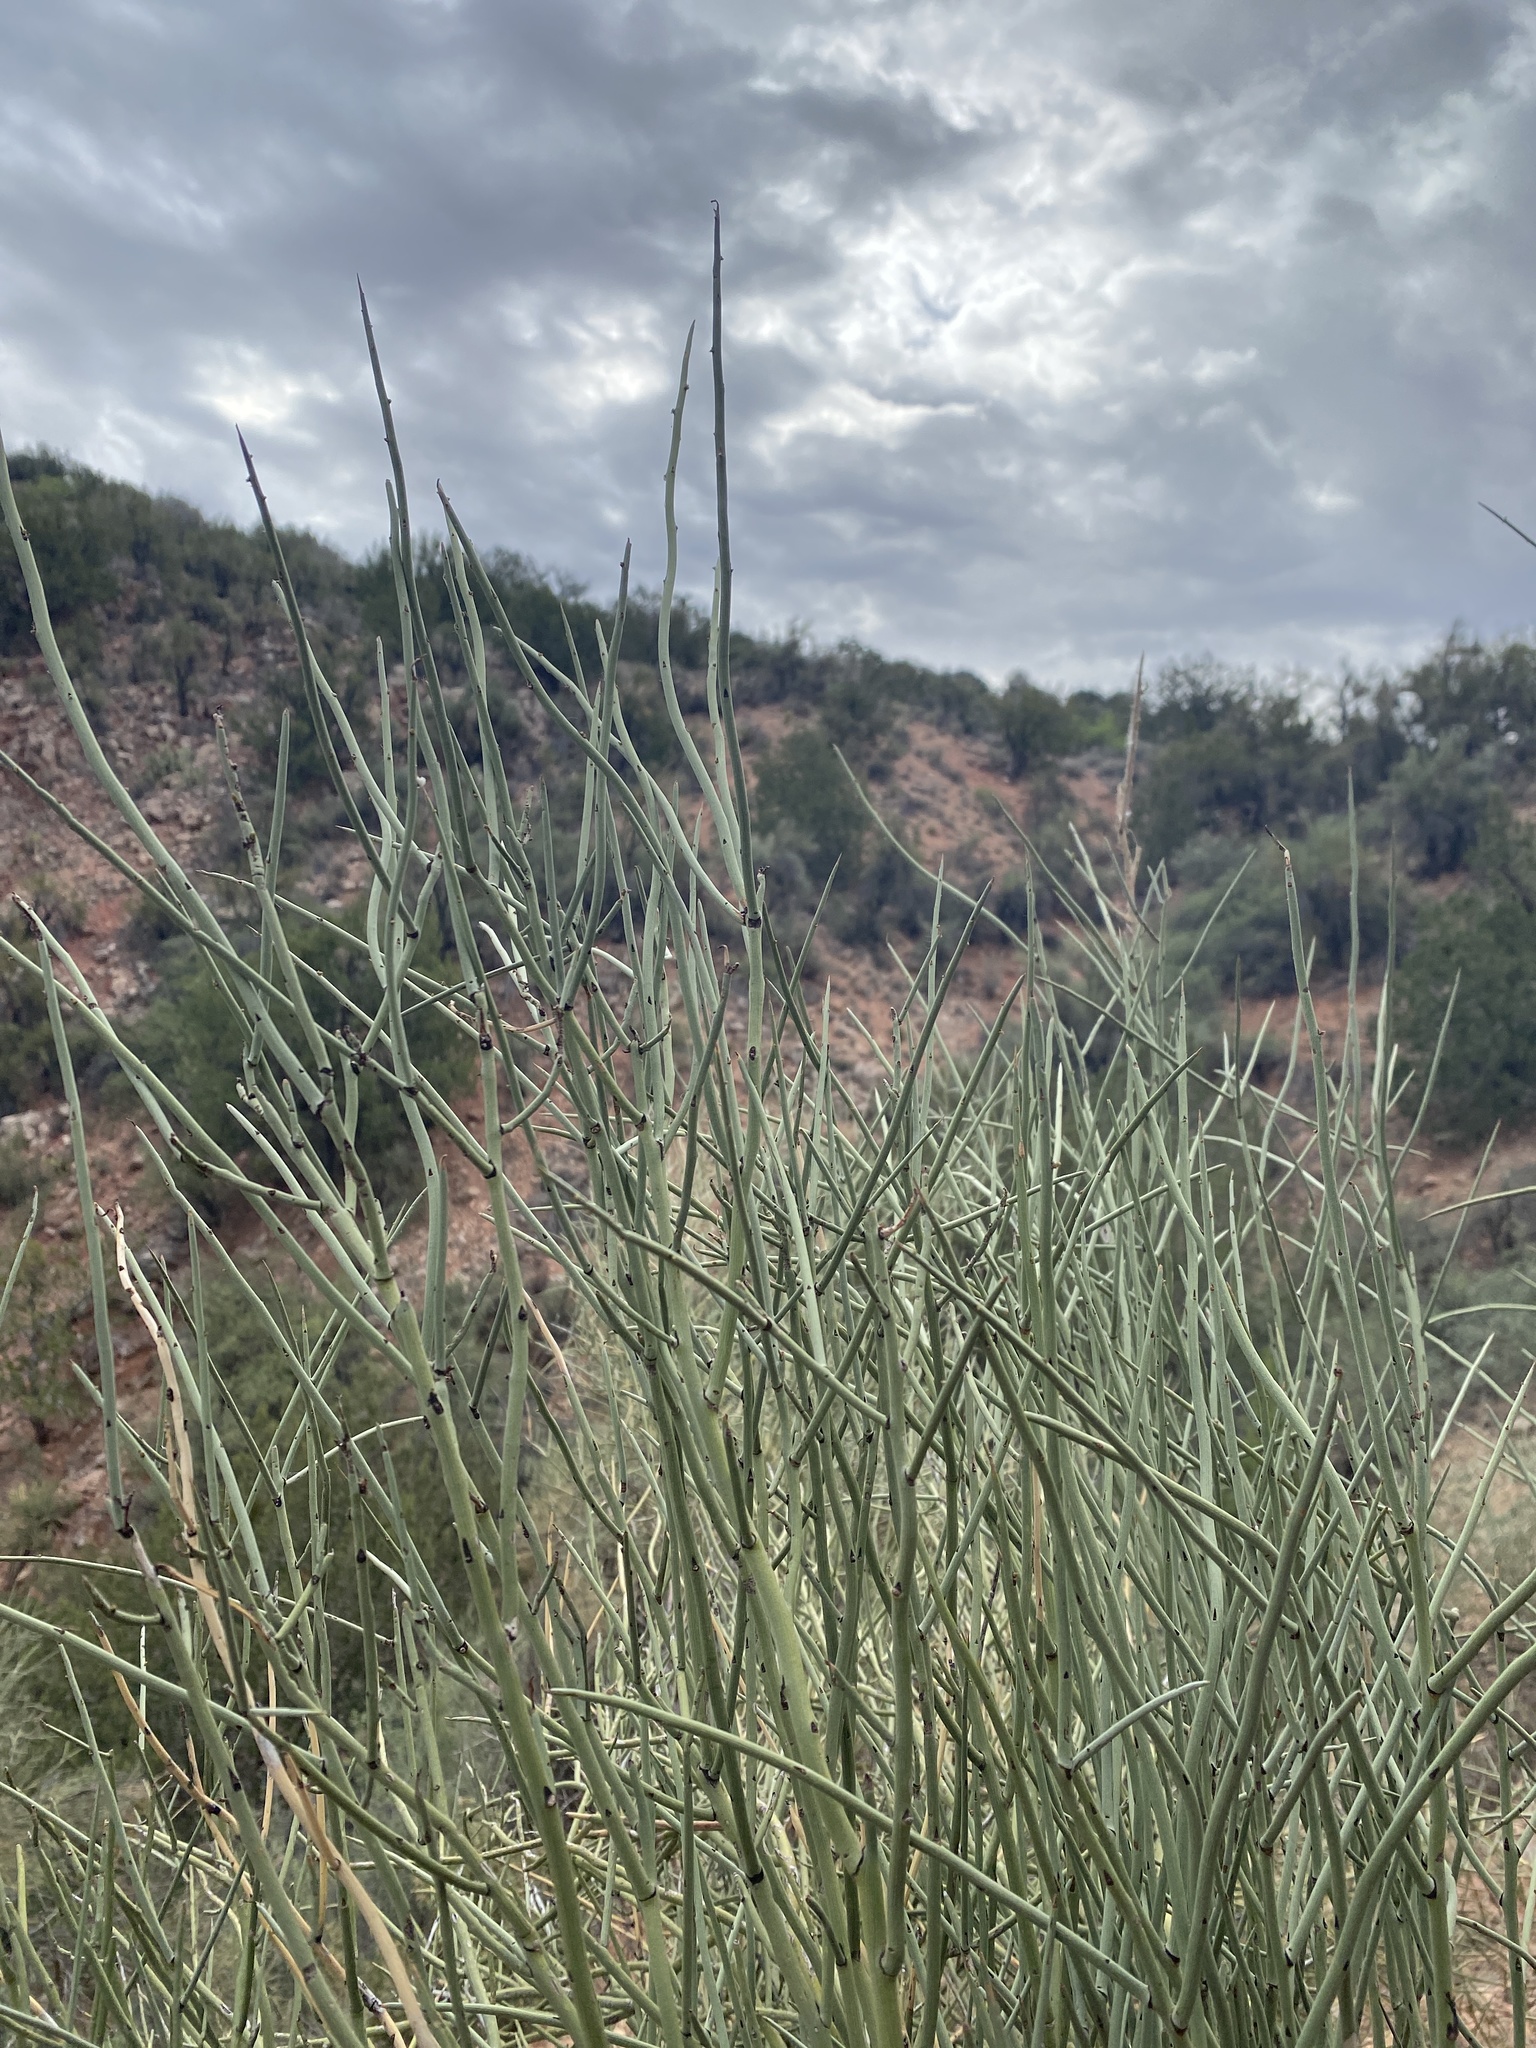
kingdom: Plantae
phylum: Tracheophyta
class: Magnoliopsida
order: Celastrales
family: Celastraceae
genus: Canotia
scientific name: Canotia holacantha
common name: Crucifixion thorns
